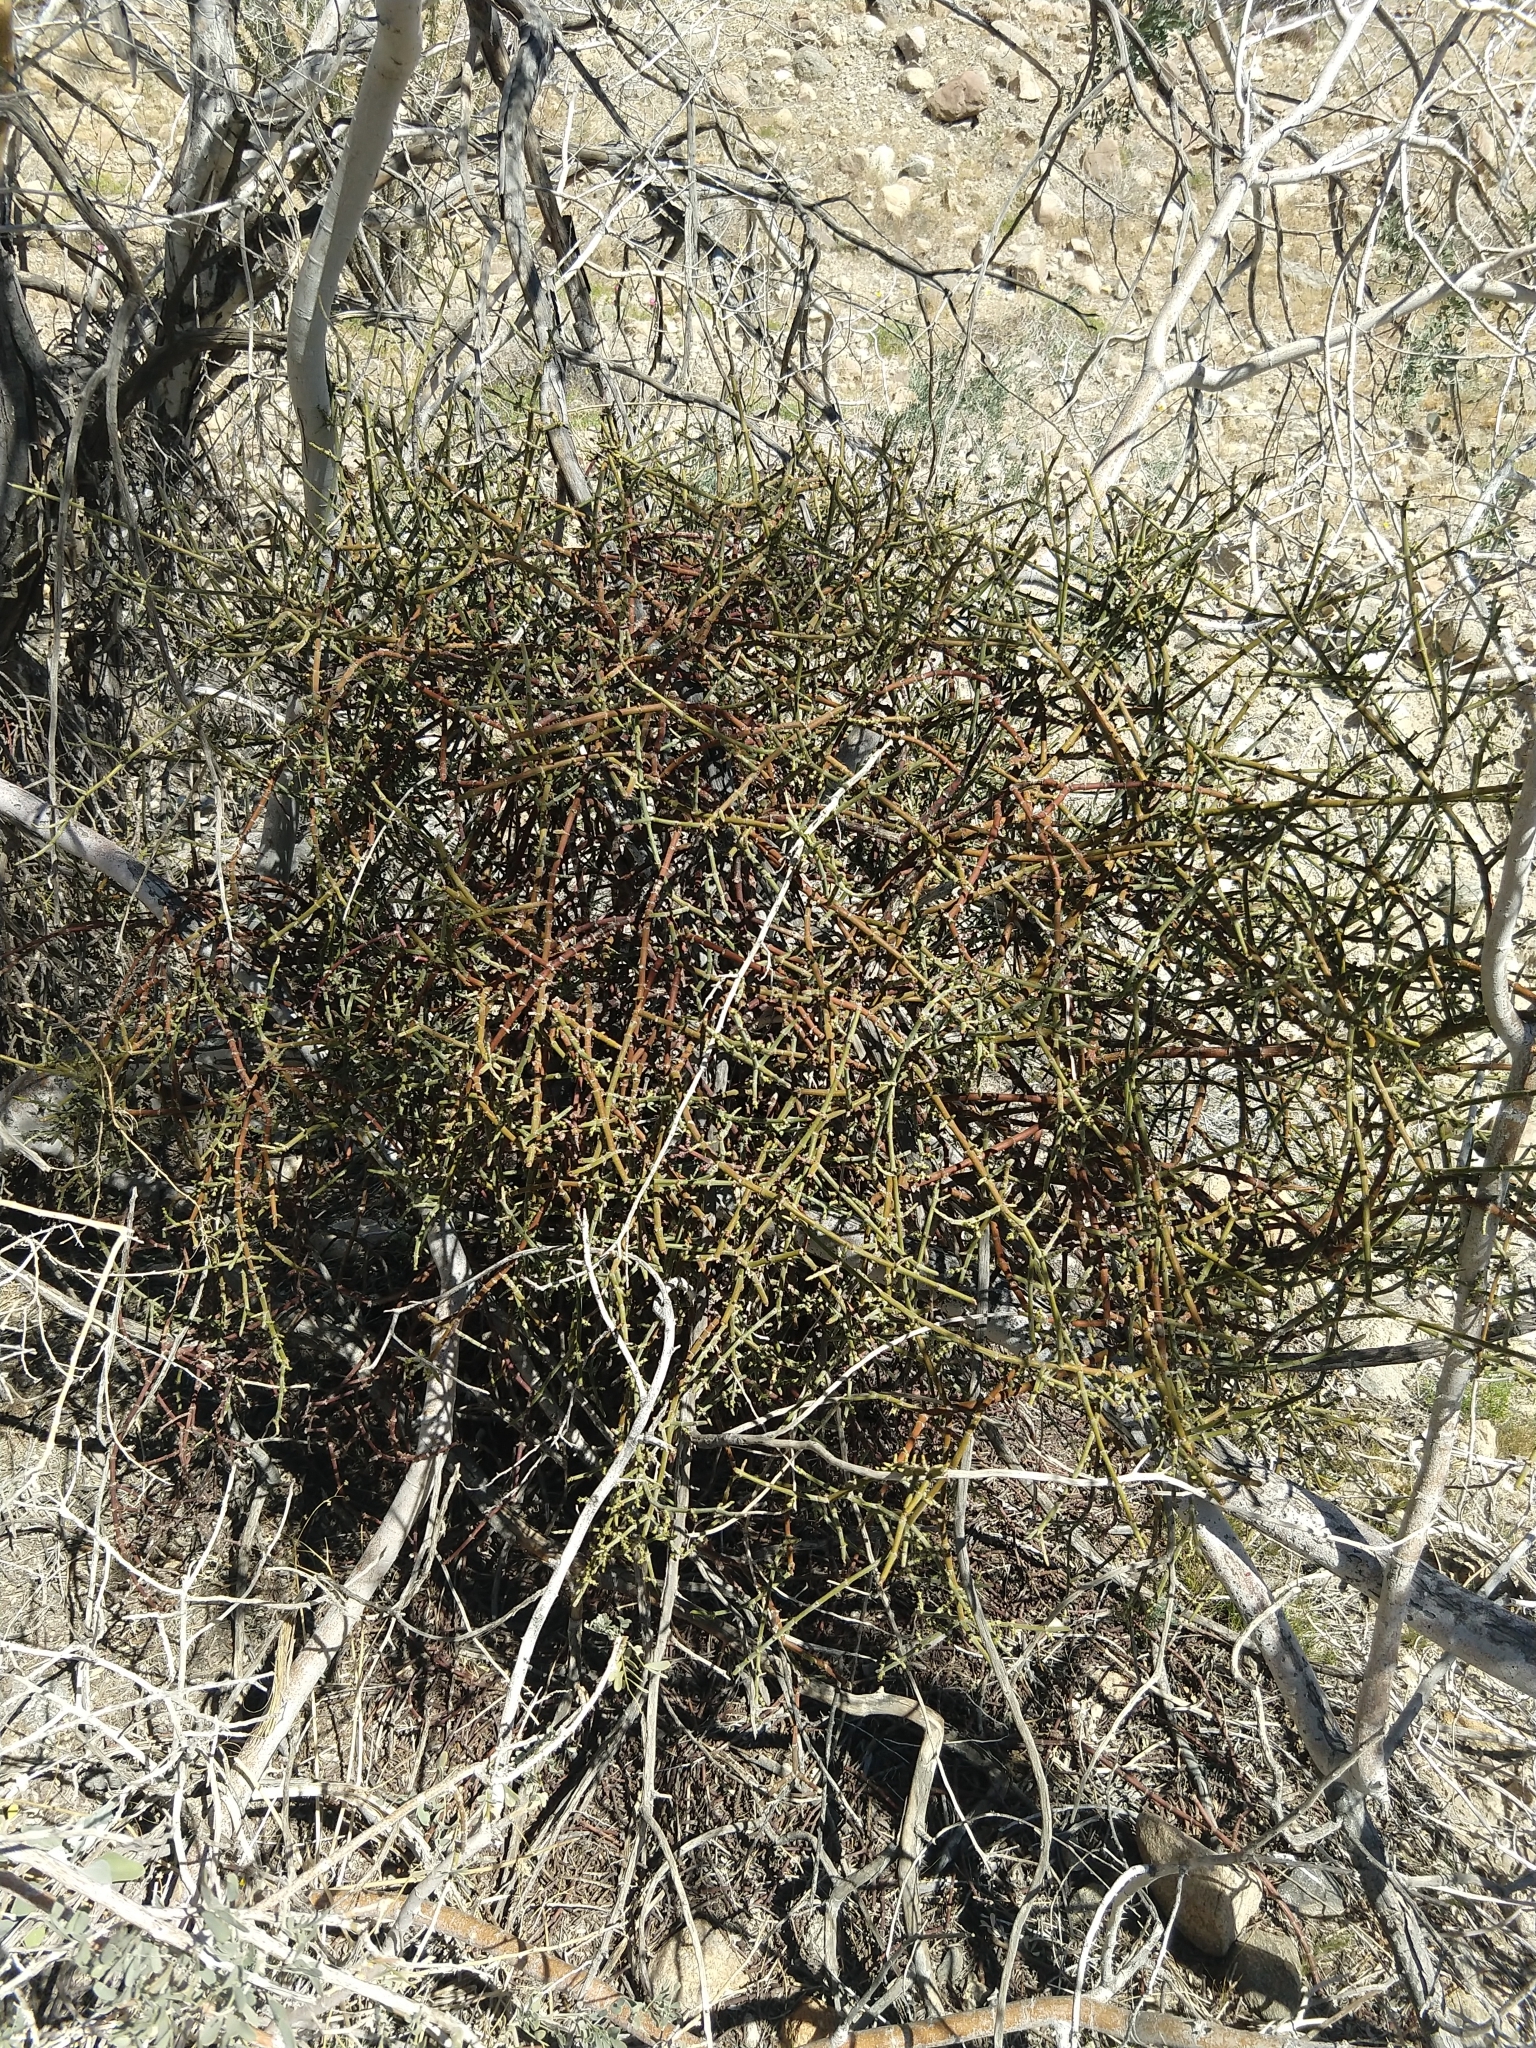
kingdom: Plantae
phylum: Tracheophyta
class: Magnoliopsida
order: Santalales
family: Viscaceae
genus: Phoradendron
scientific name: Phoradendron californicum
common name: Acacia mistletoe
